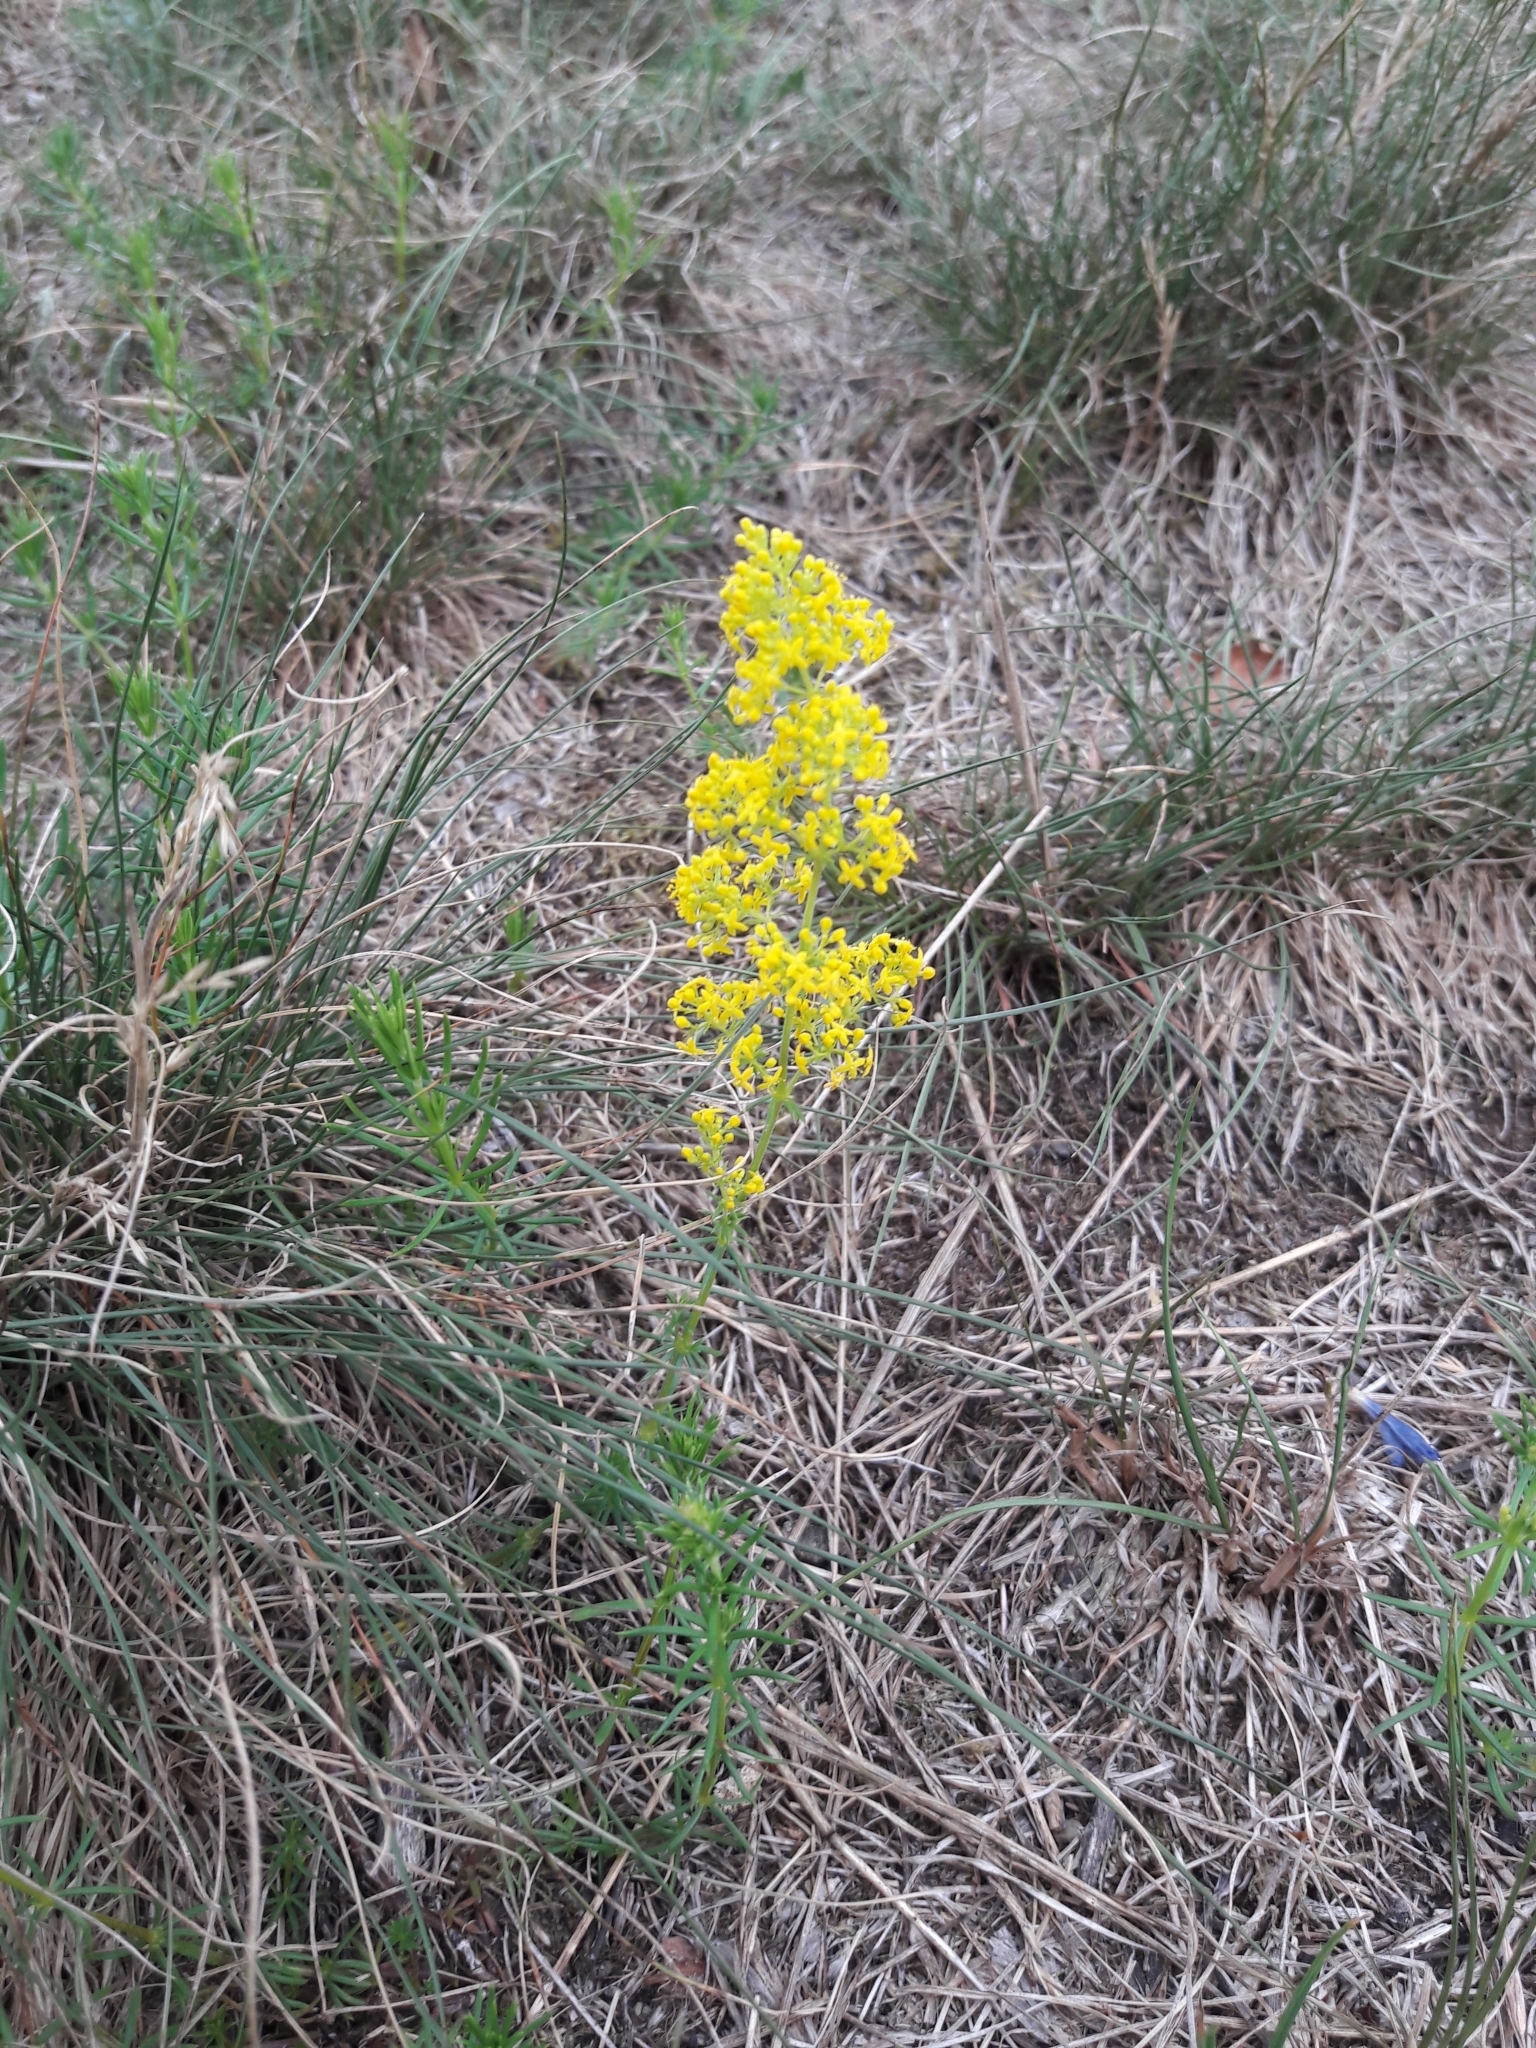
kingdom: Plantae
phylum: Tracheophyta
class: Magnoliopsida
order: Gentianales
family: Rubiaceae
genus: Galium
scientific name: Galium verum
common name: Lady's bedstraw
